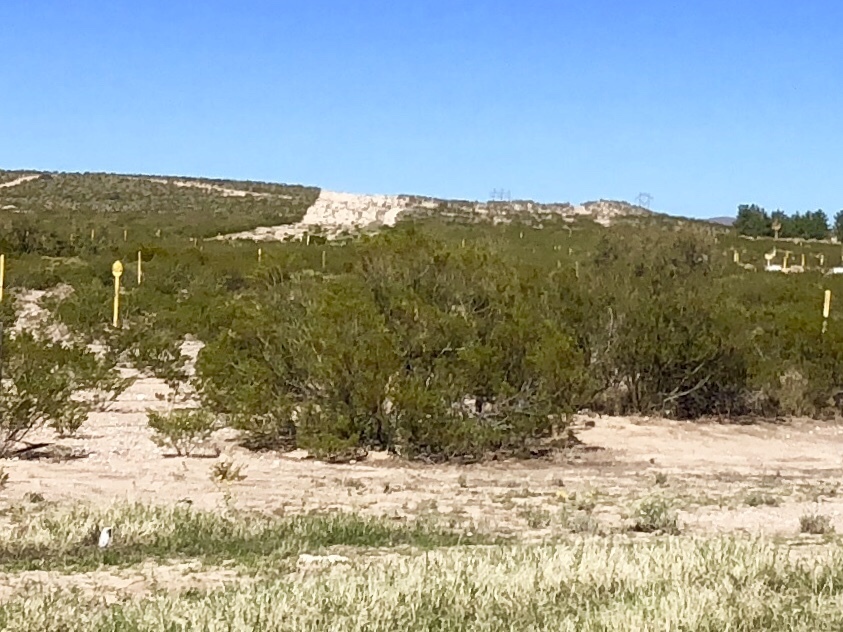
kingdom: Plantae
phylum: Tracheophyta
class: Magnoliopsida
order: Zygophyllales
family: Zygophyllaceae
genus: Larrea
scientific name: Larrea tridentata
